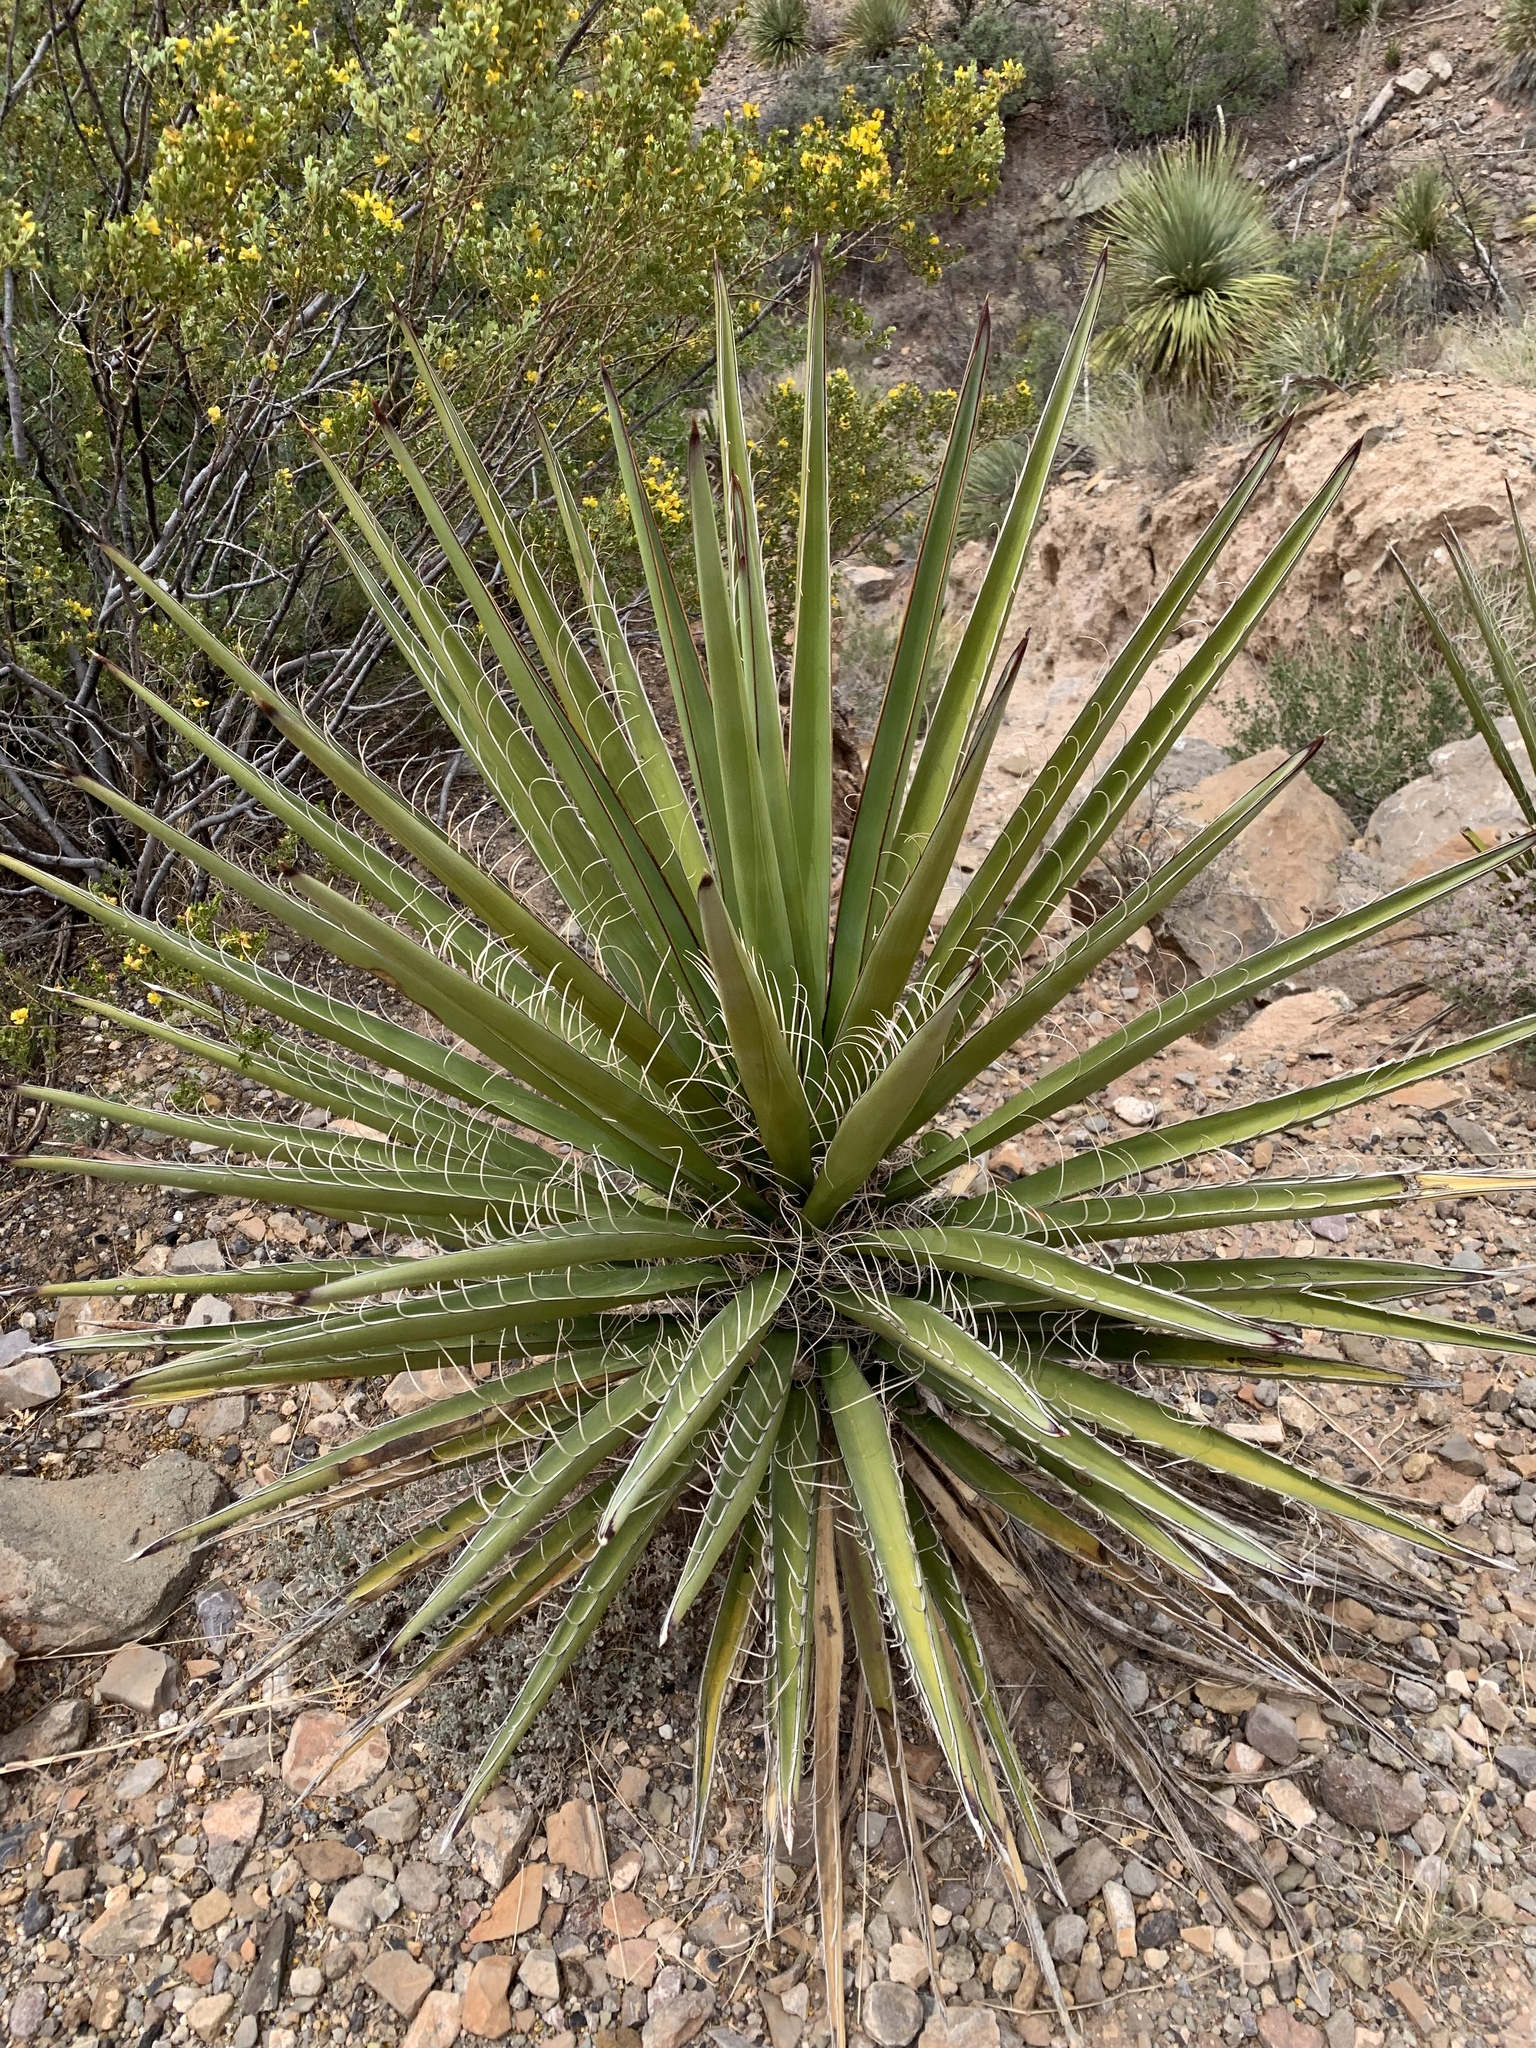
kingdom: Plantae
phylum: Tracheophyta
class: Liliopsida
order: Asparagales
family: Asparagaceae
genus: Yucca
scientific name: Yucca treculiana
